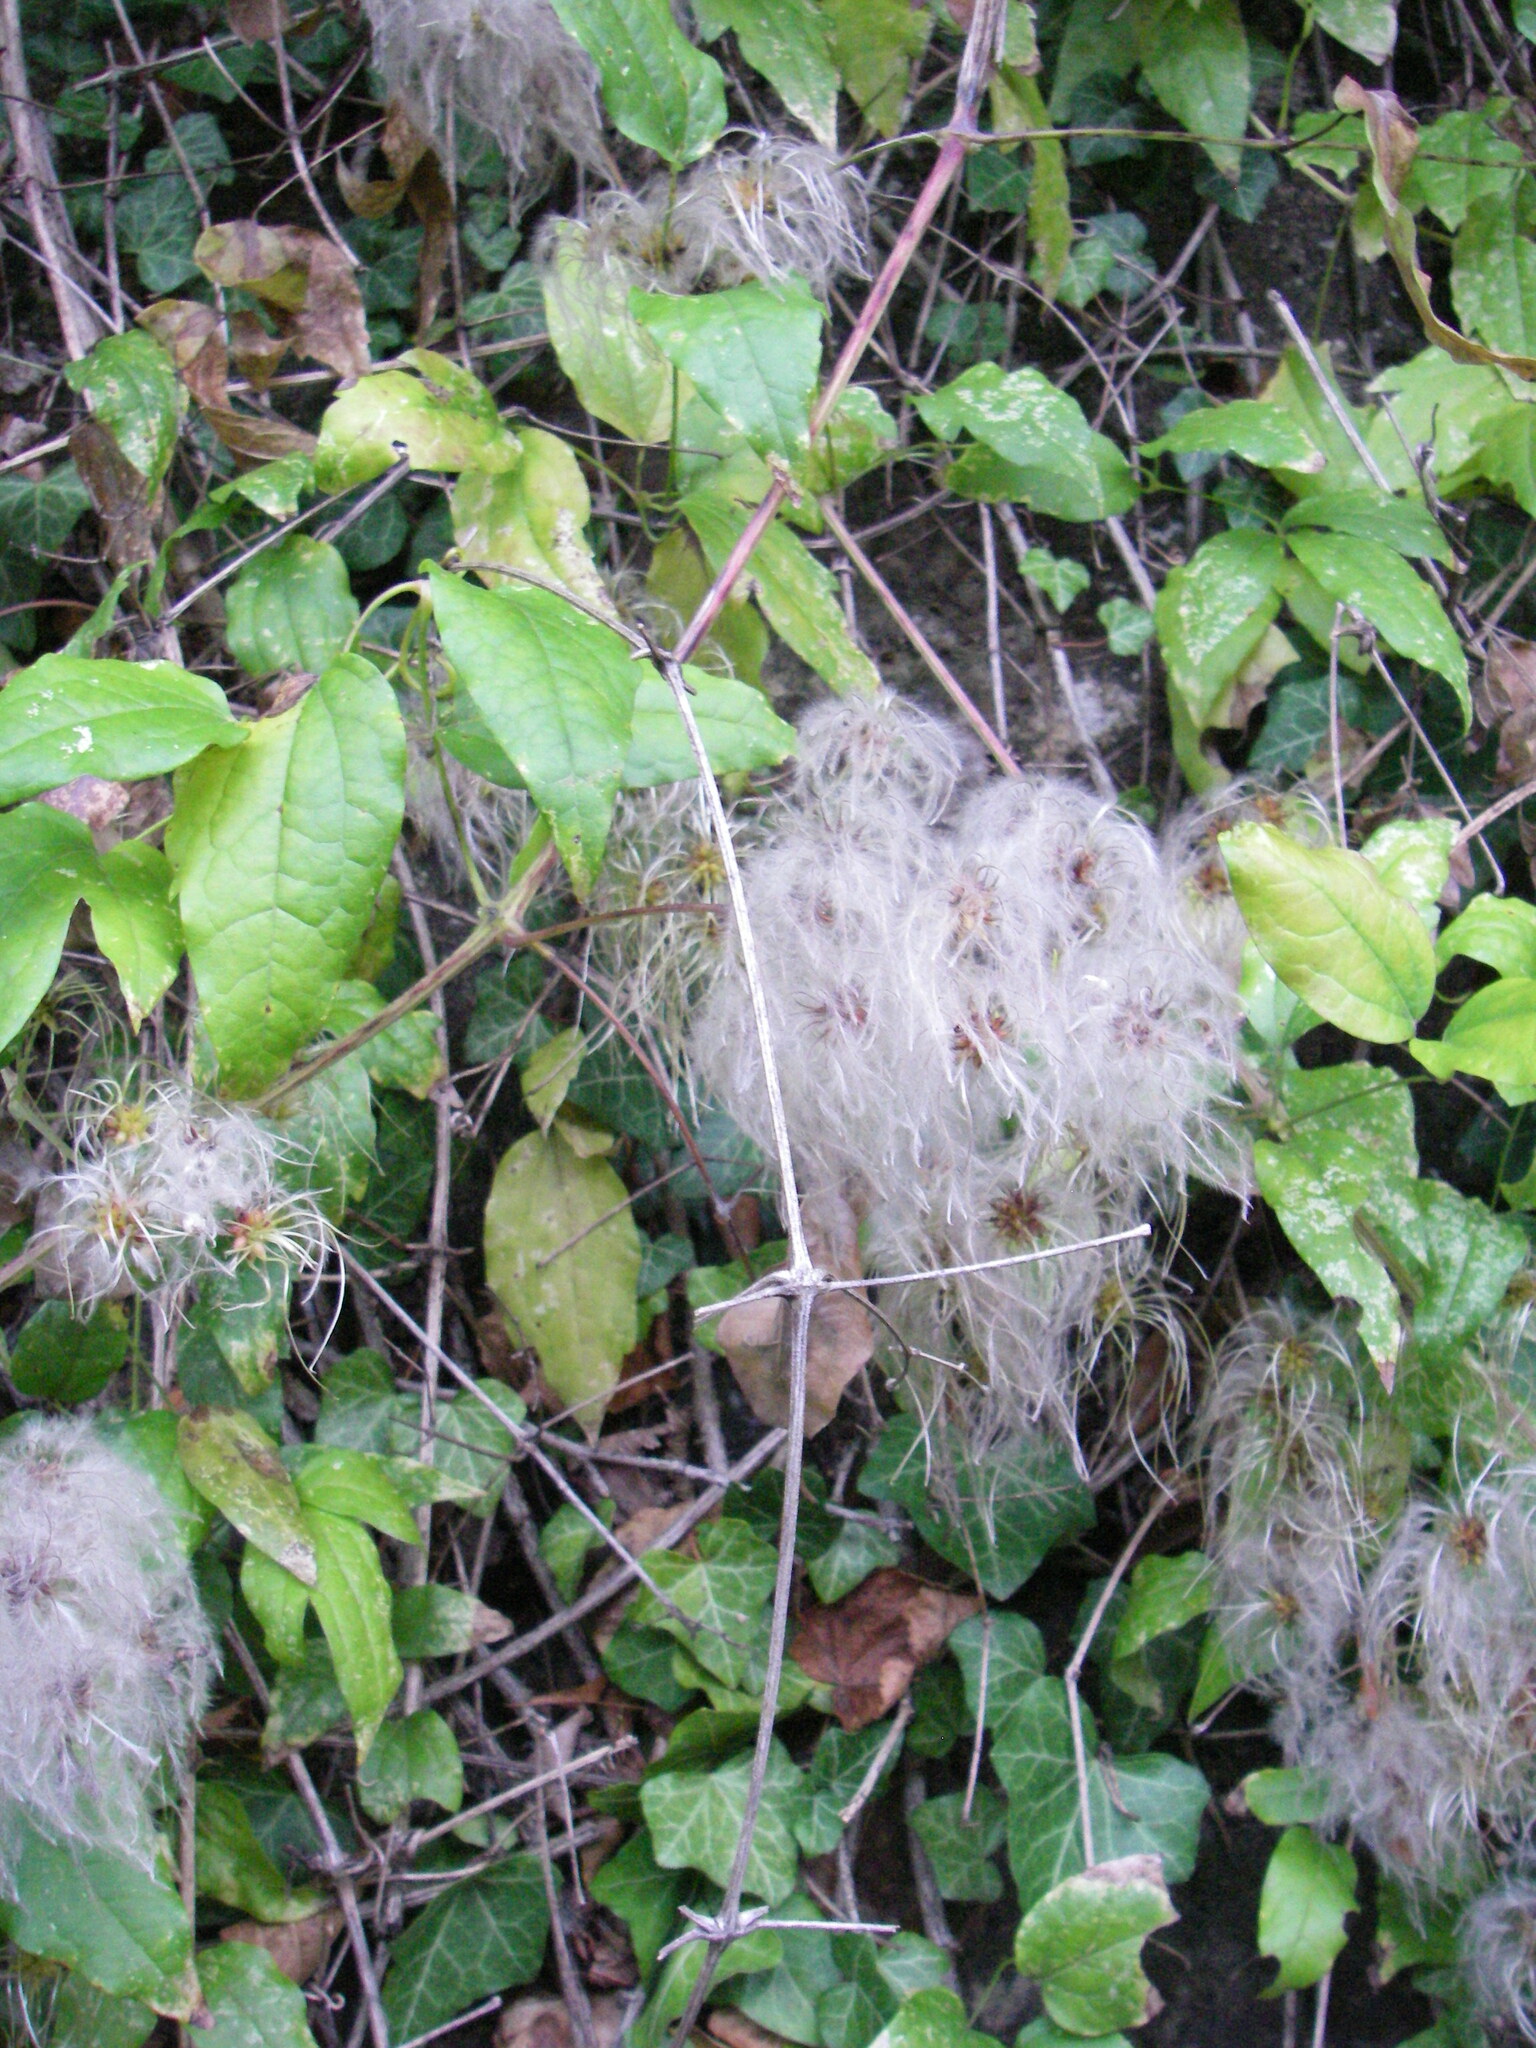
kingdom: Plantae
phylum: Tracheophyta
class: Magnoliopsida
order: Ranunculales
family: Ranunculaceae
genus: Clematis
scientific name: Clematis vitalba
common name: Evergreen clematis
